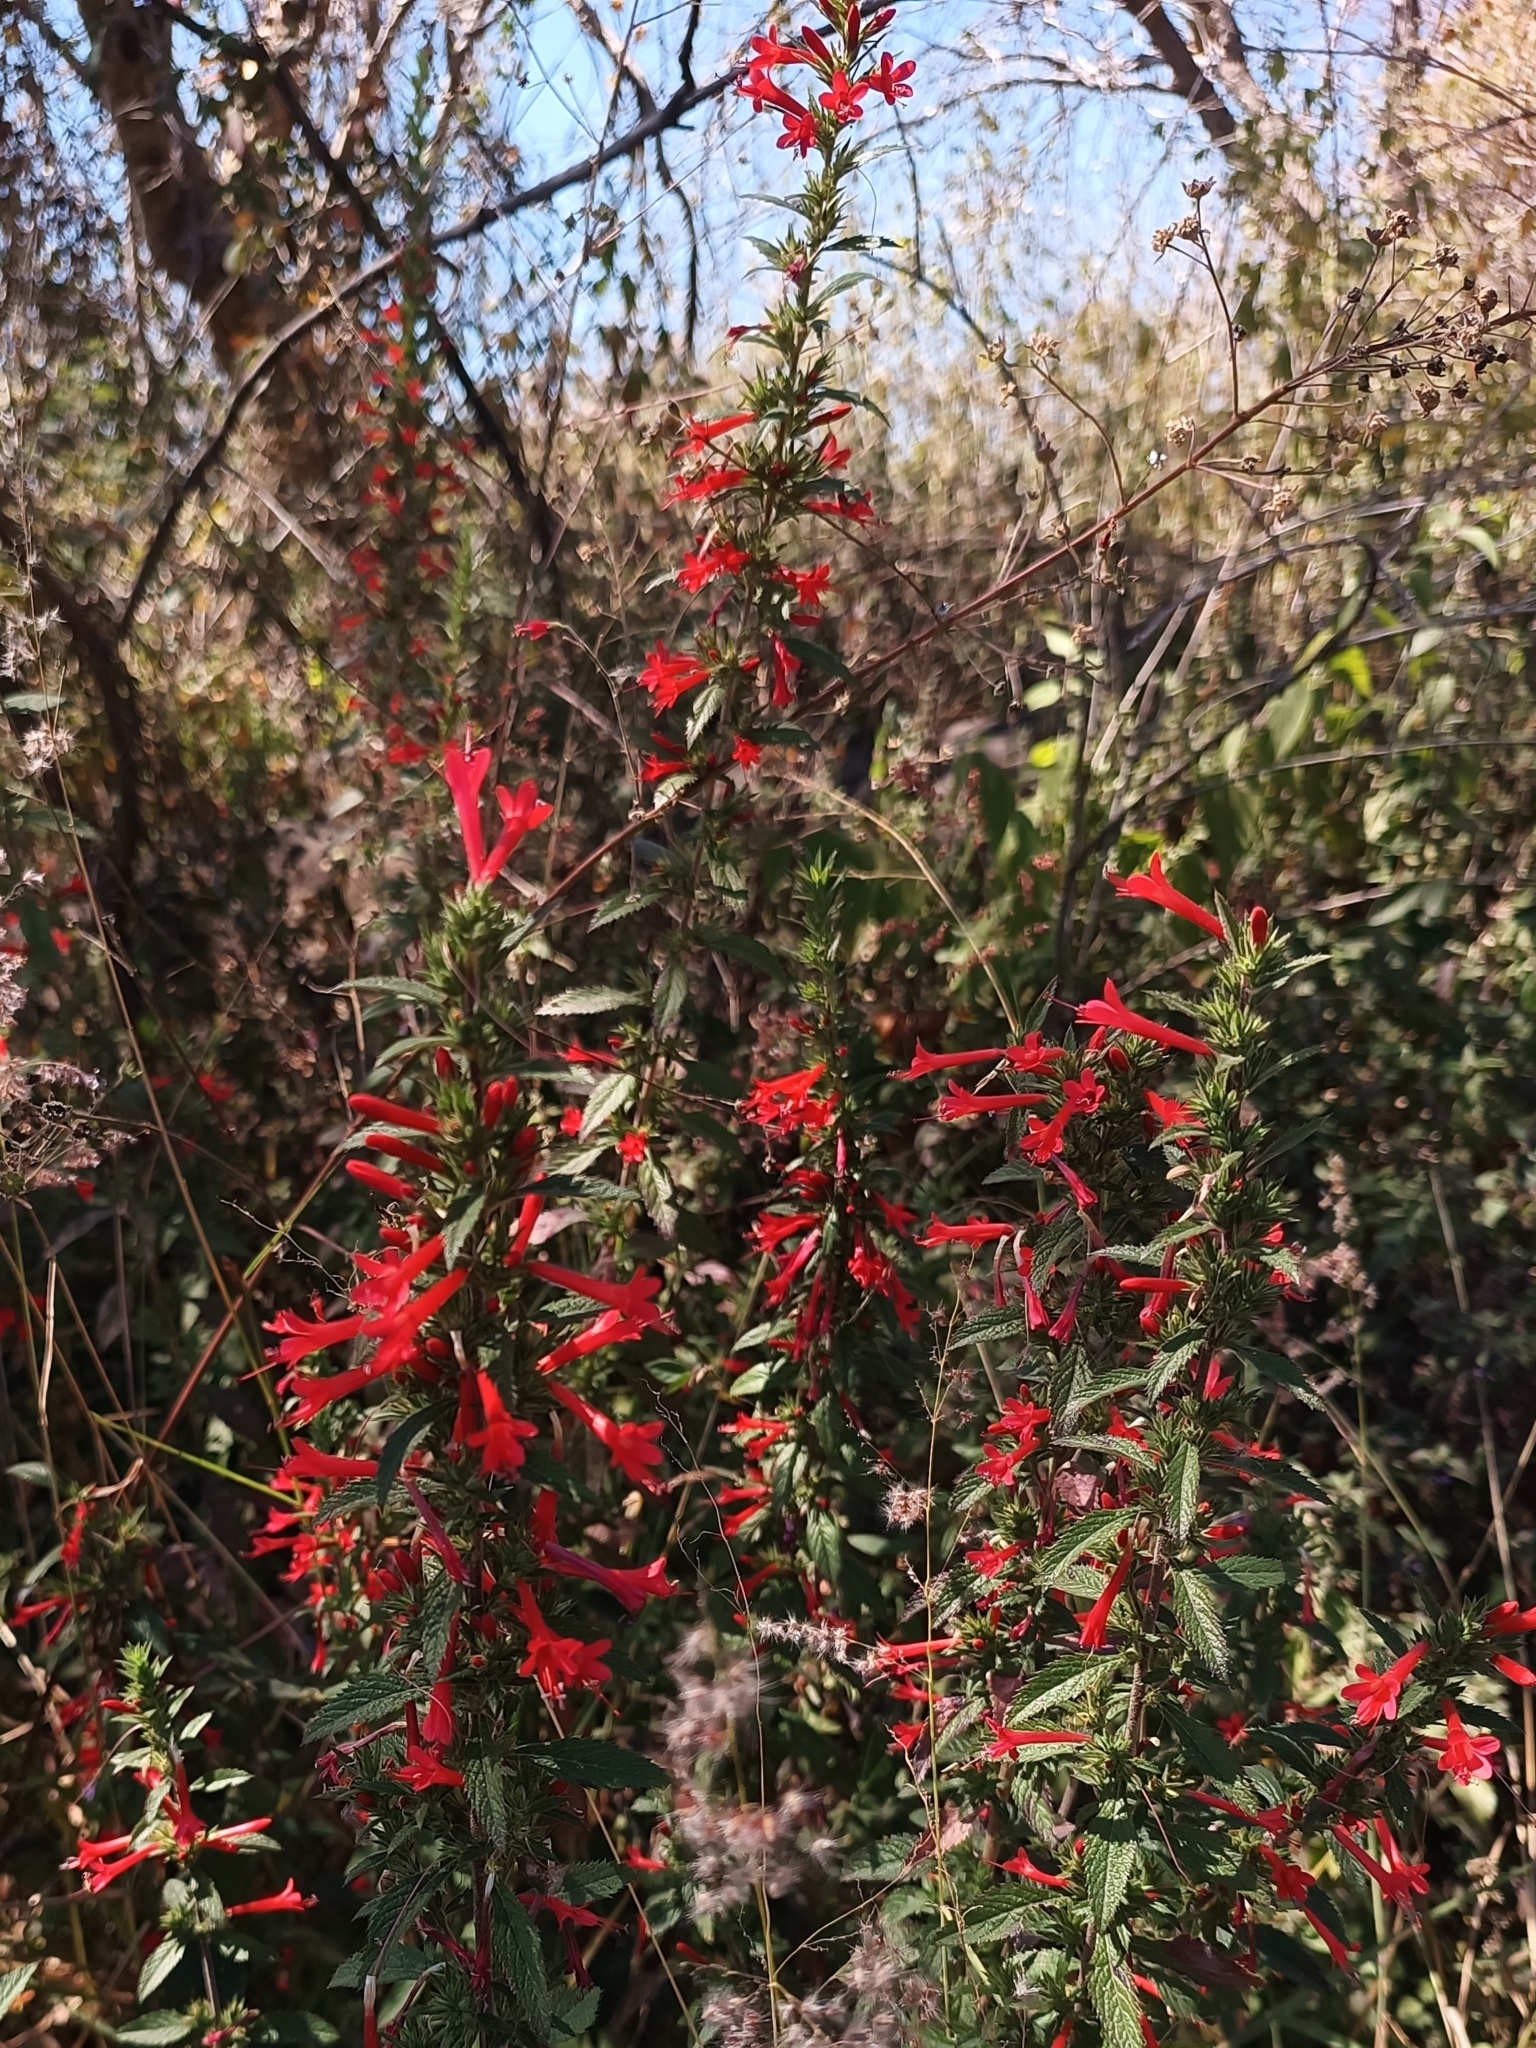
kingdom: Plantae
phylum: Tracheophyta
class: Magnoliopsida
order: Ericales
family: Polemoniaceae
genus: Loeselia
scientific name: Loeselia mexicana
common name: Mexican false calico
